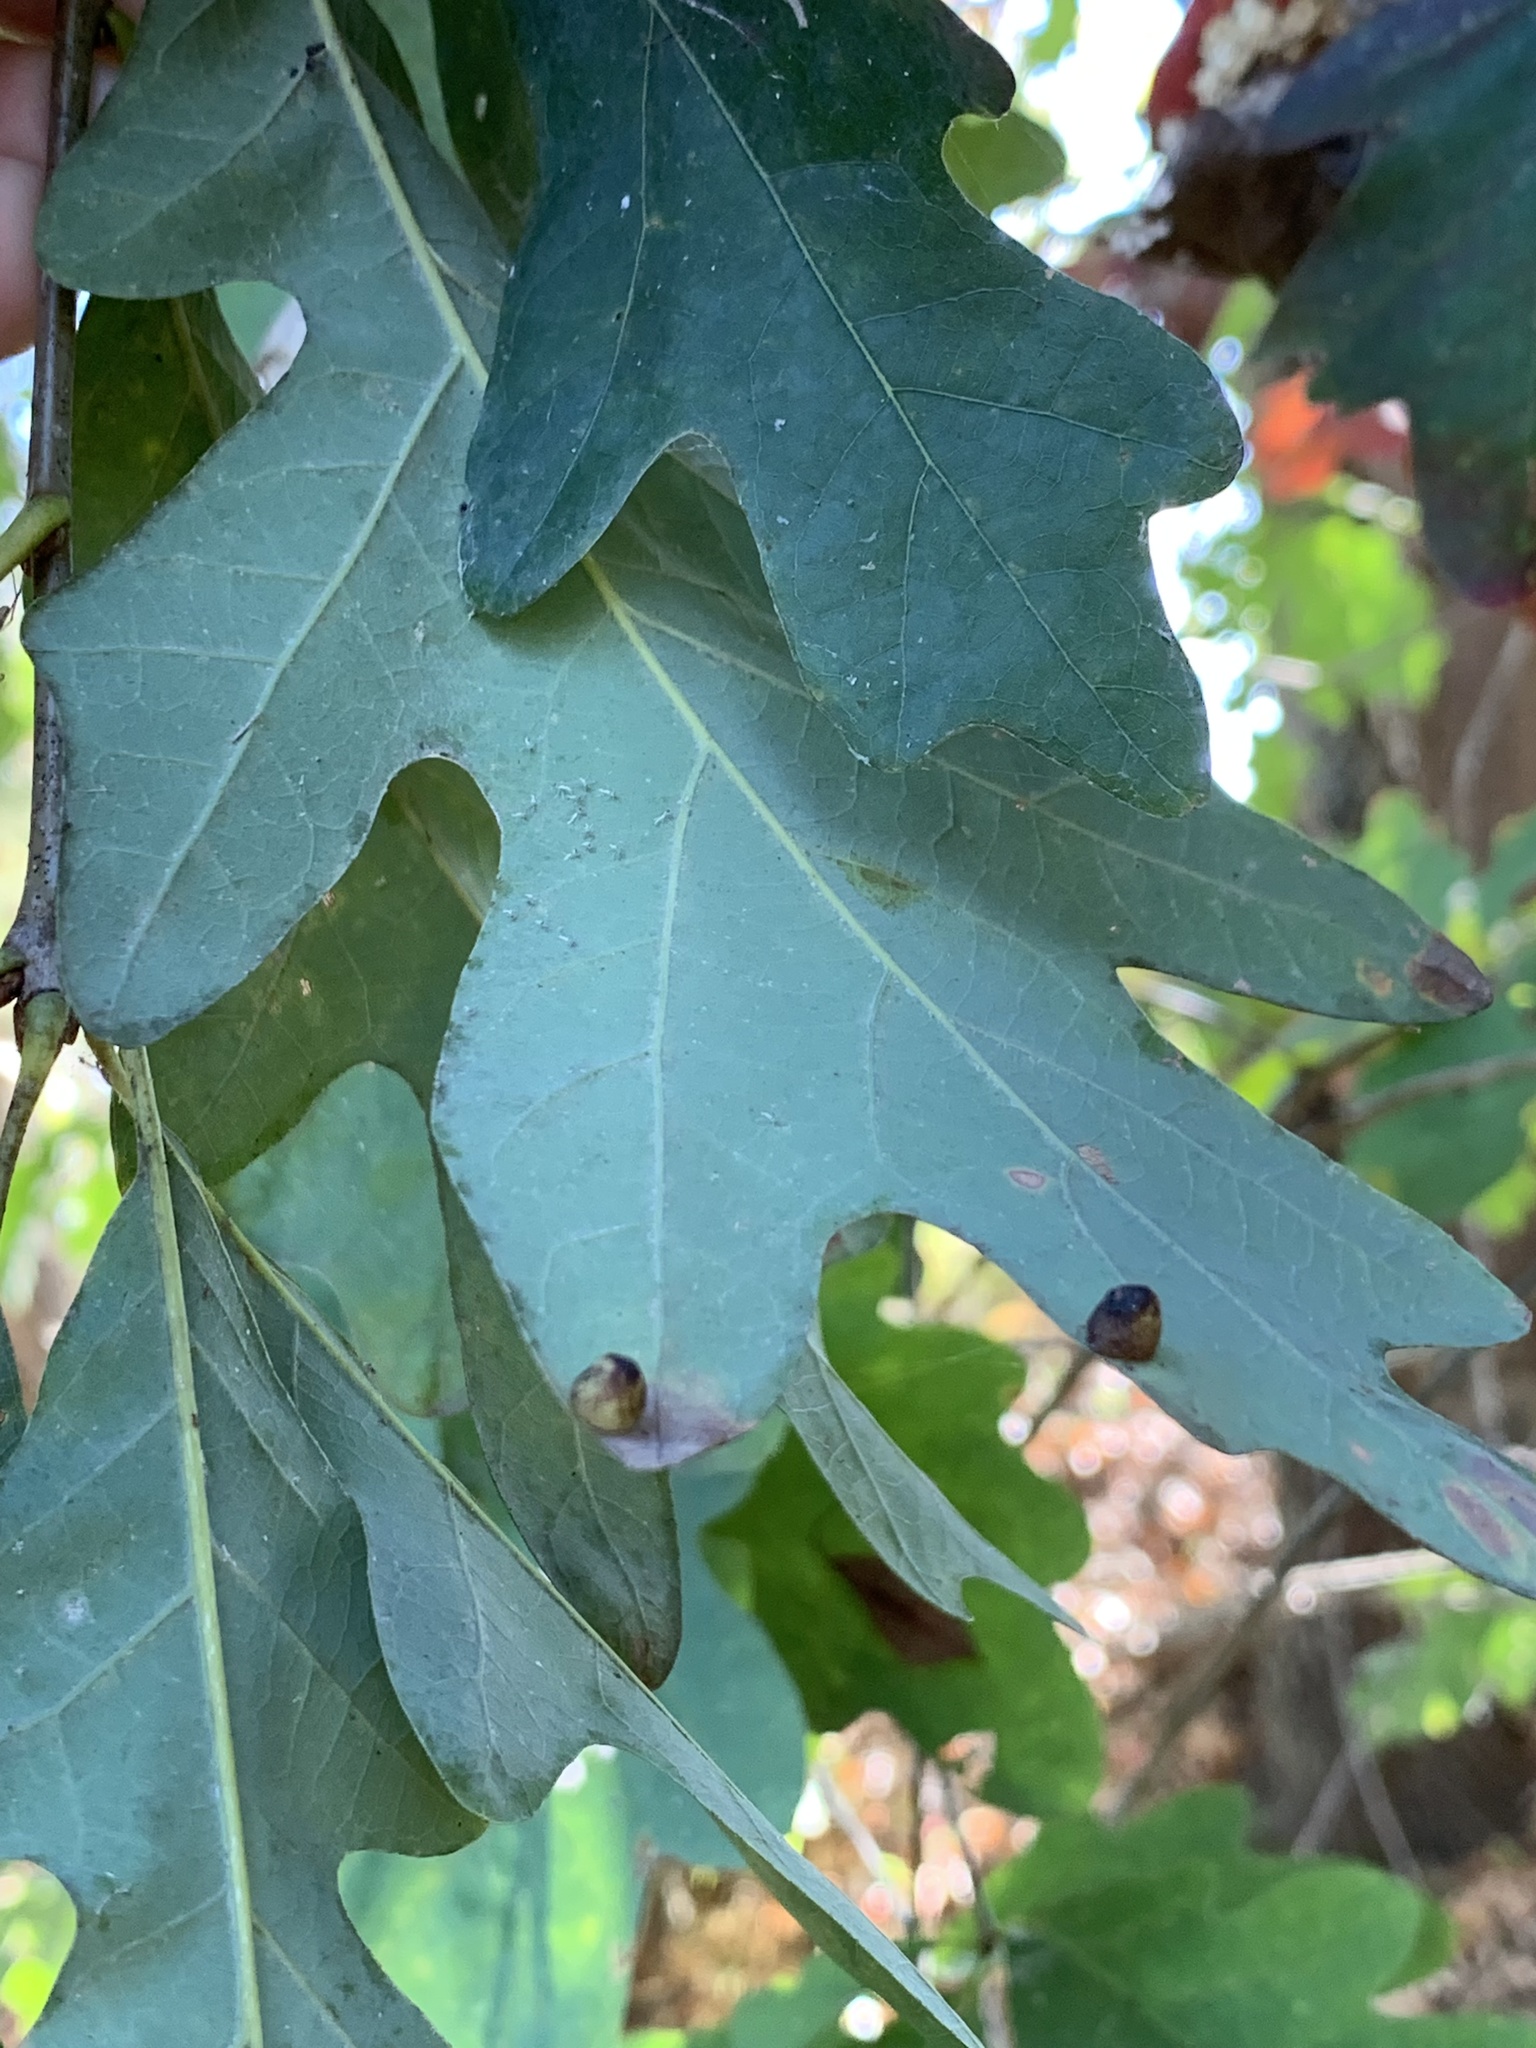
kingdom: Animalia
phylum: Arthropoda
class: Insecta
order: Hymenoptera
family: Cynipidae
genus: Andricus
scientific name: Andricus
